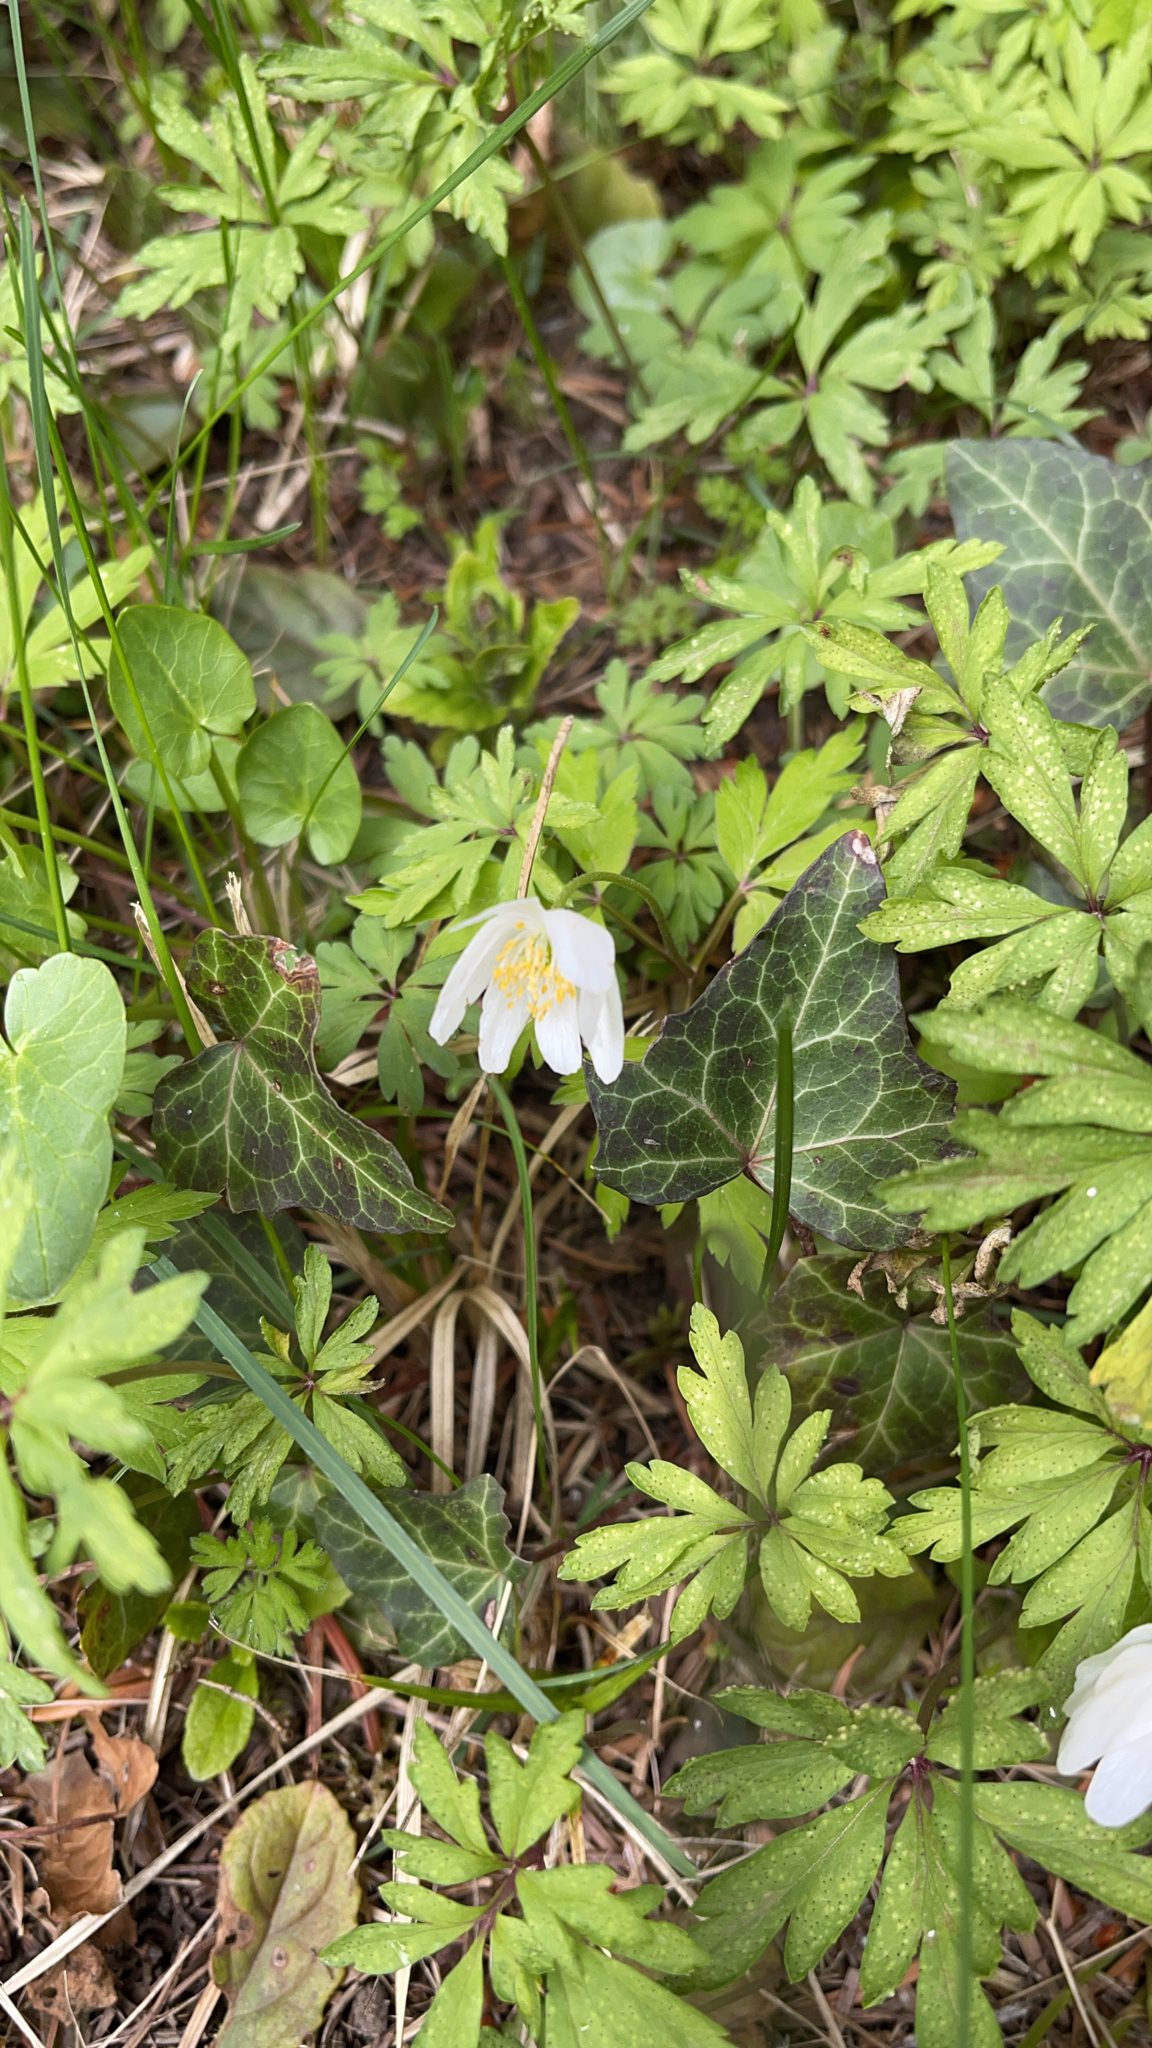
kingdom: Plantae
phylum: Tracheophyta
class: Magnoliopsida
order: Ranunculales
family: Ranunculaceae
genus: Anemone
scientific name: Anemone nemorosa
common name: Wood anemone
